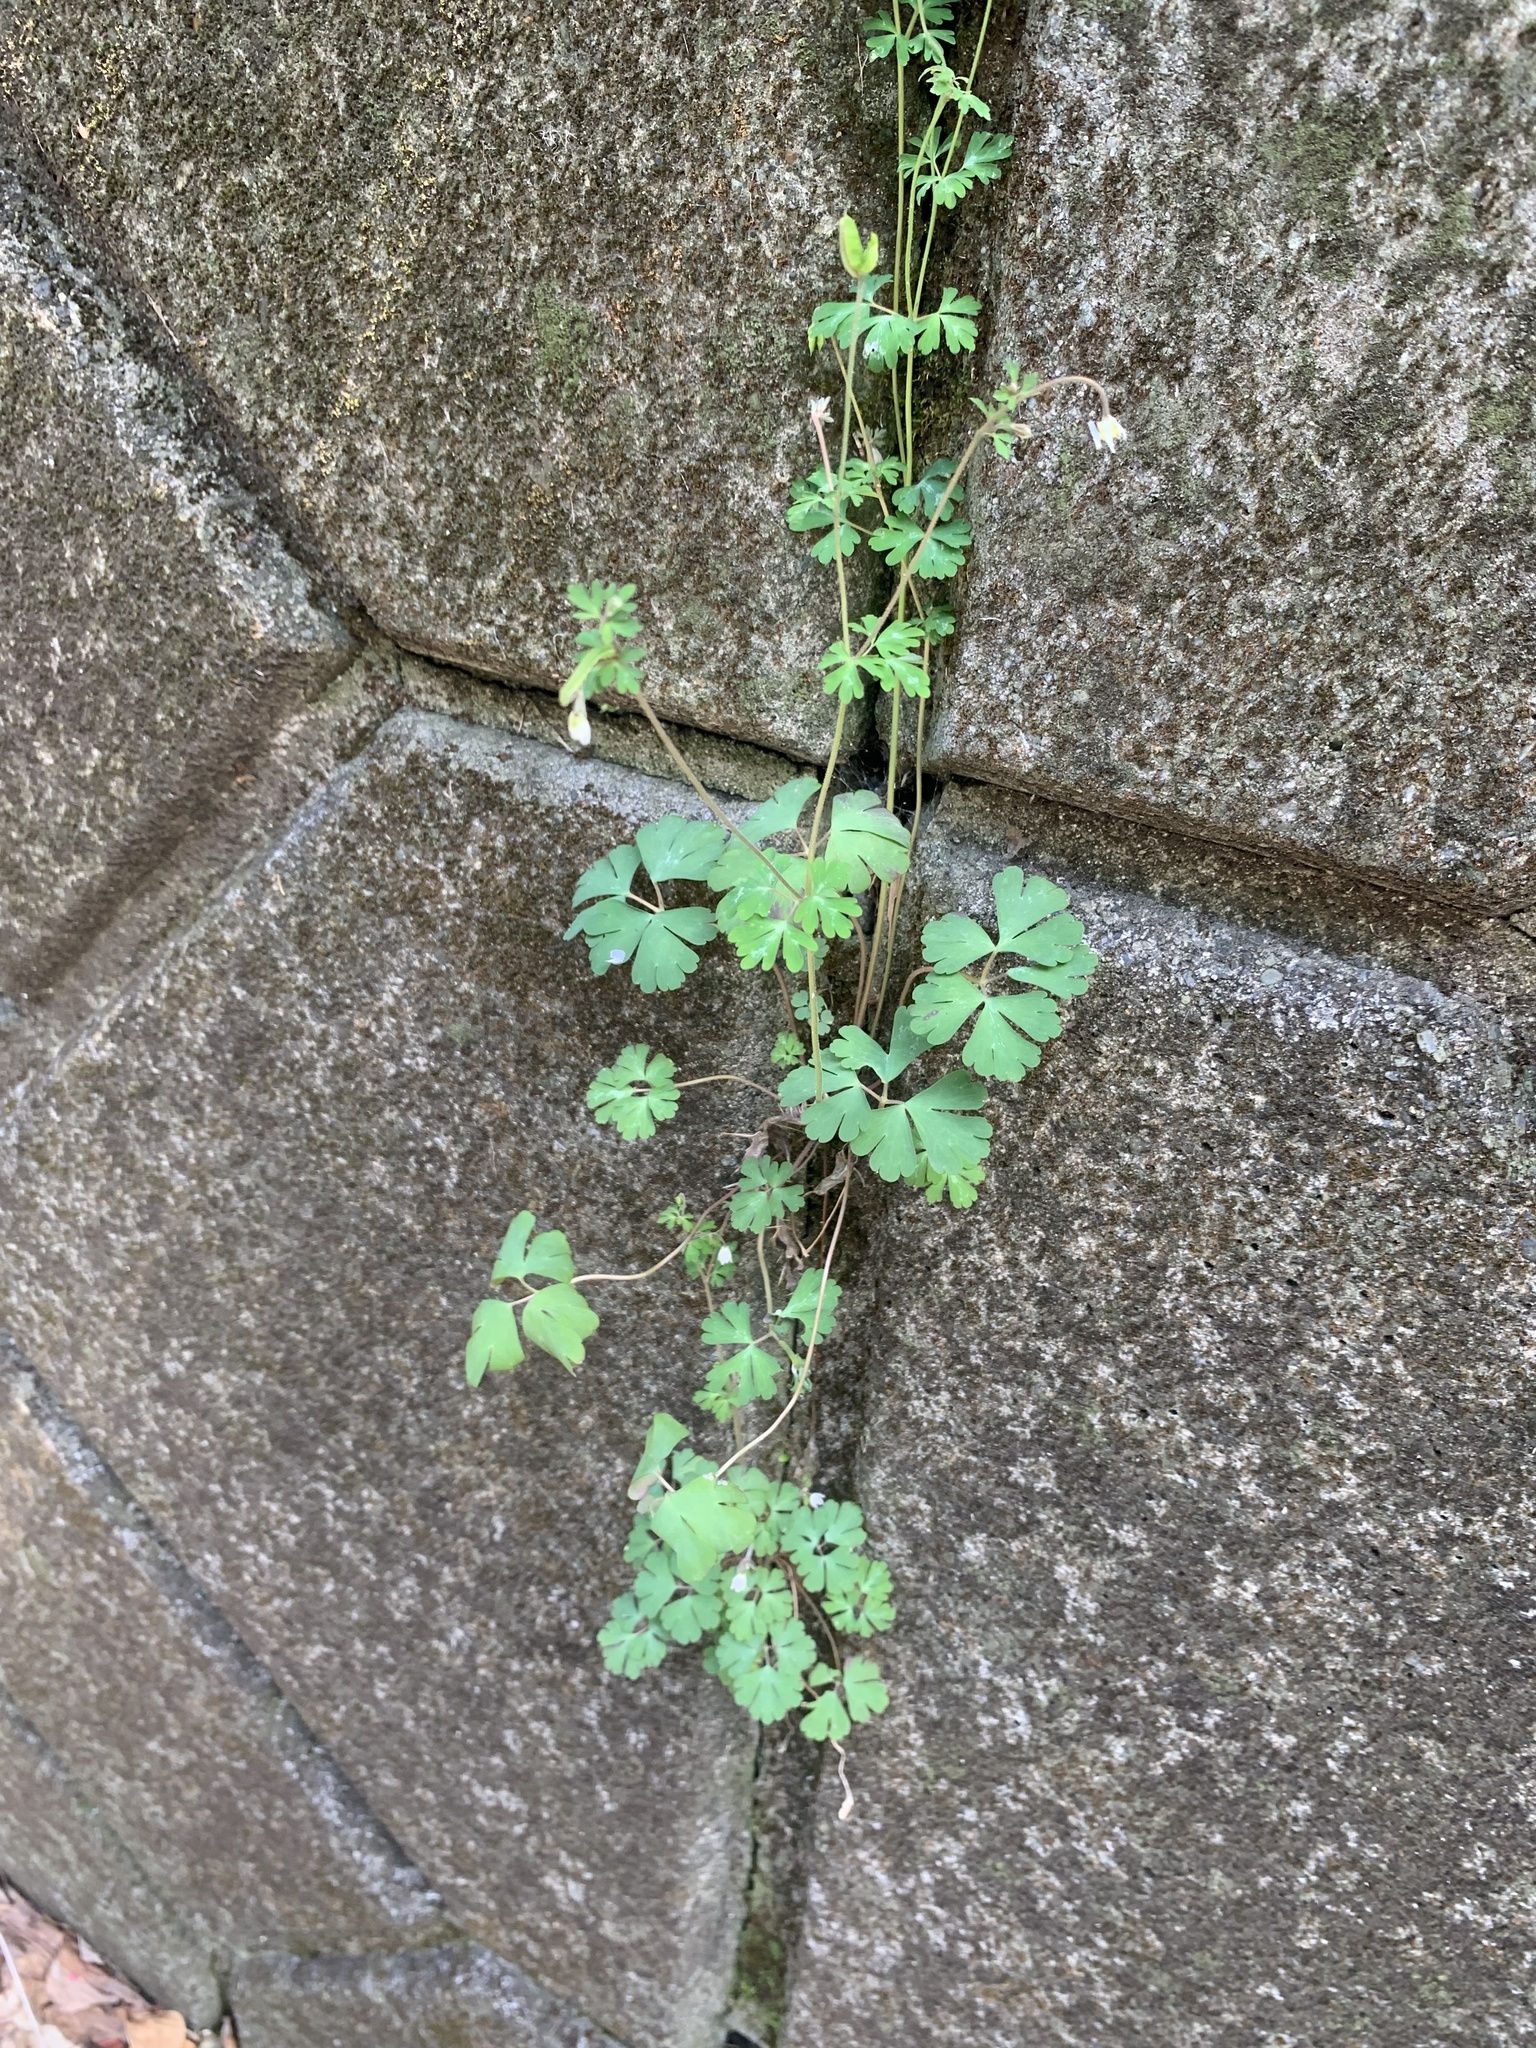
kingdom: Plantae
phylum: Tracheophyta
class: Magnoliopsida
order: Ranunculales
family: Ranunculaceae
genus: Semiaquilegia
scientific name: Semiaquilegia adoxoides
